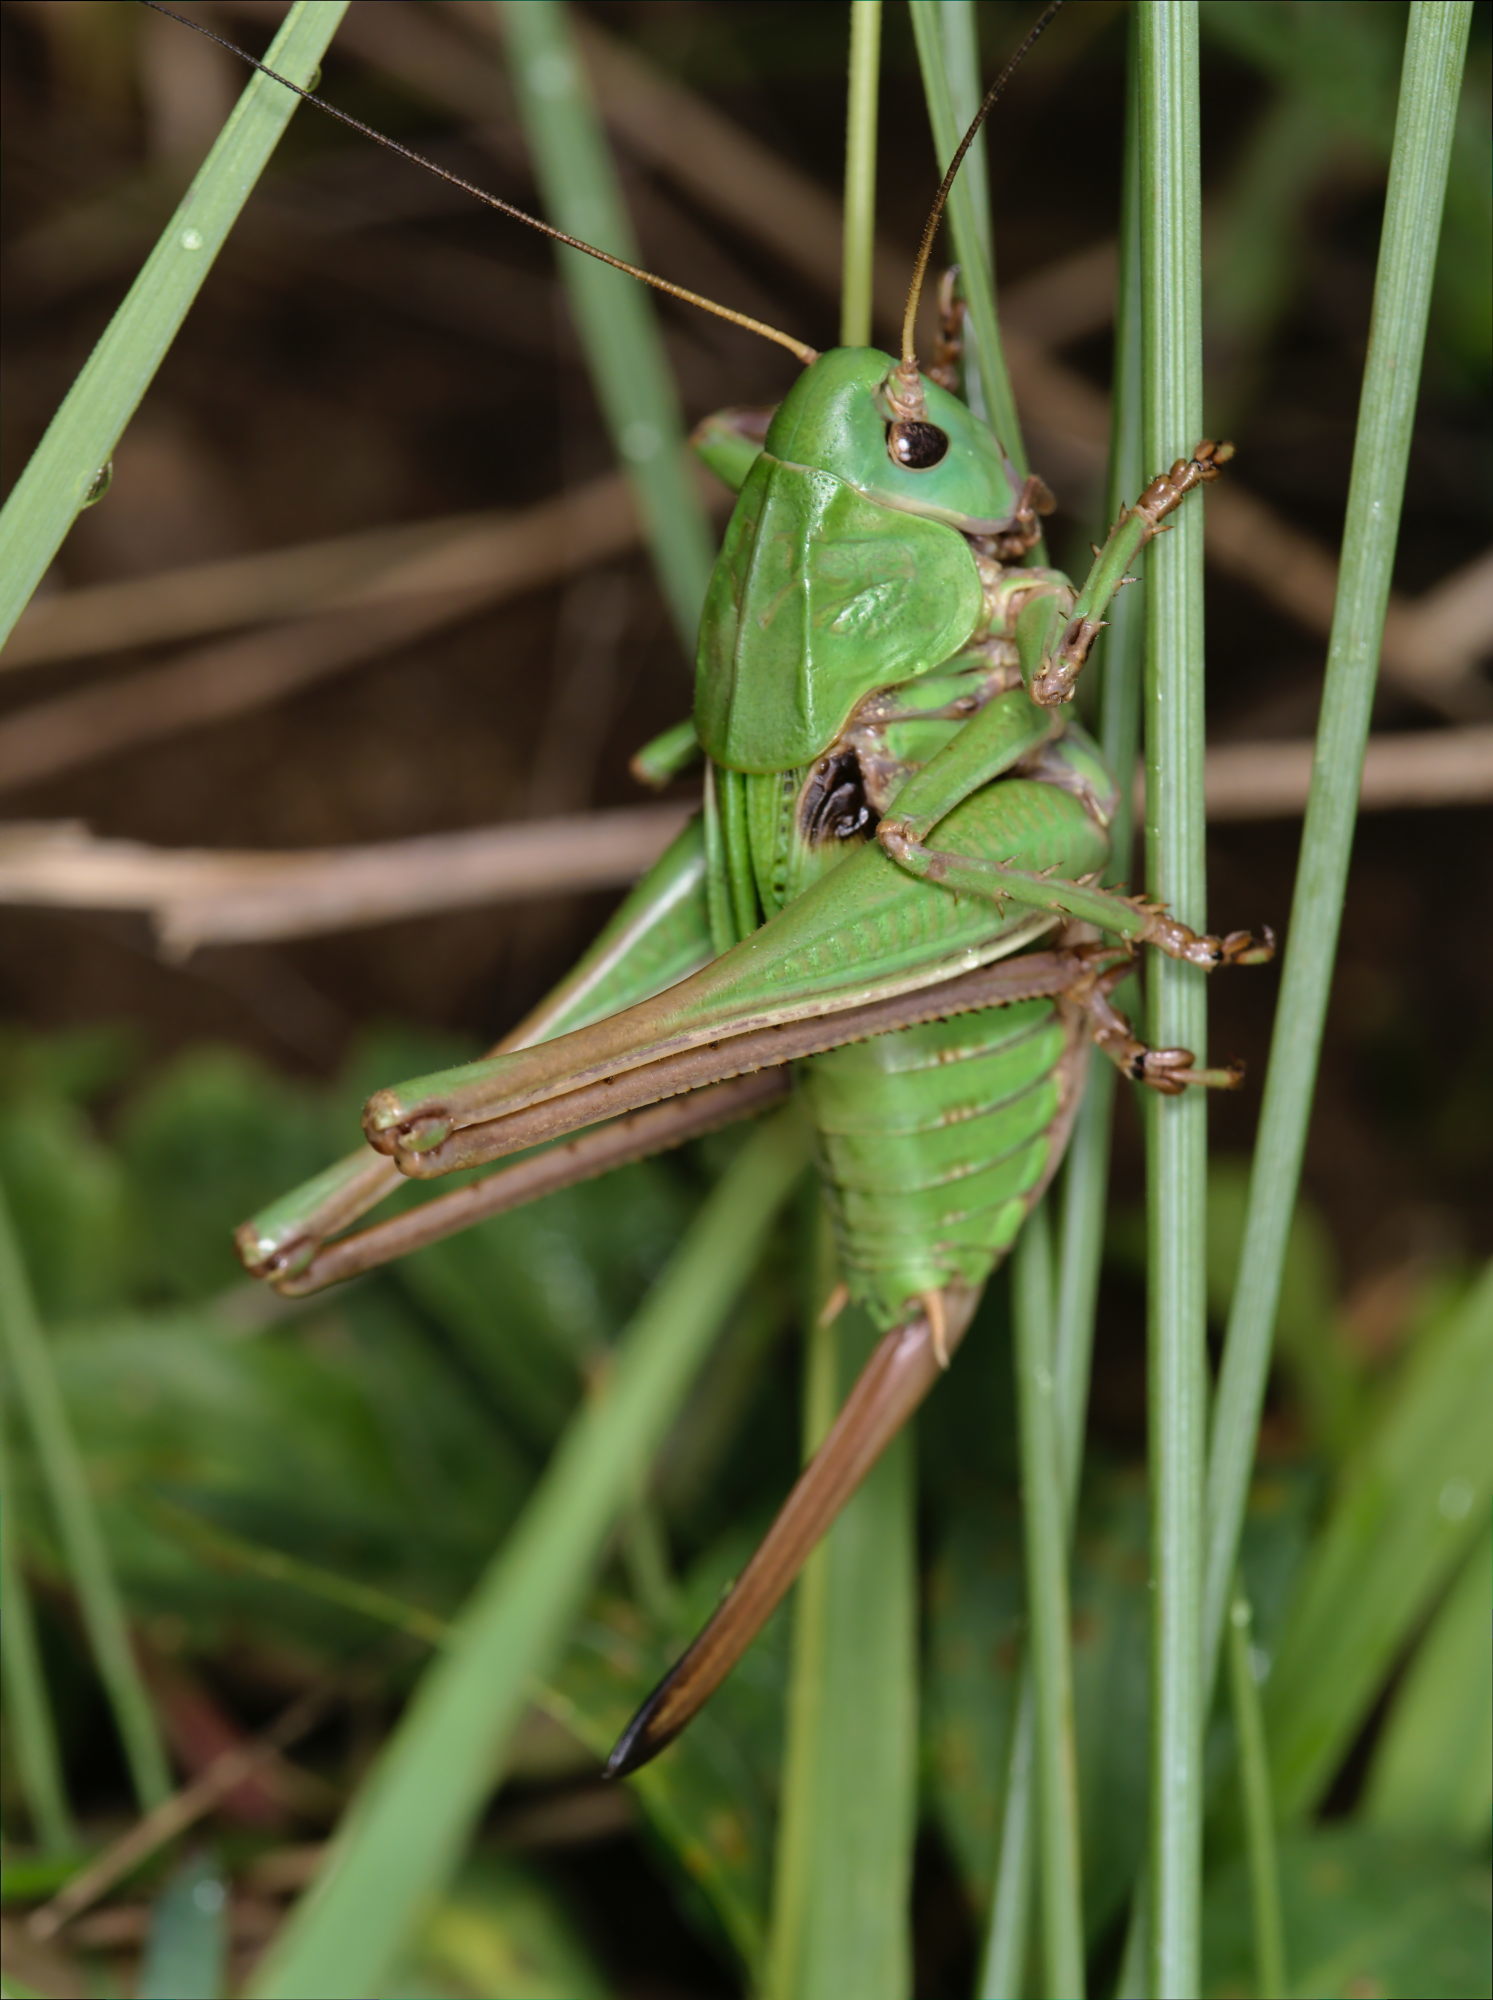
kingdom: Animalia
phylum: Arthropoda
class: Insecta
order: Orthoptera
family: Tettigoniidae
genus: Decticus
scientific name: Decticus verrucivorus
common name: Wart-biter
